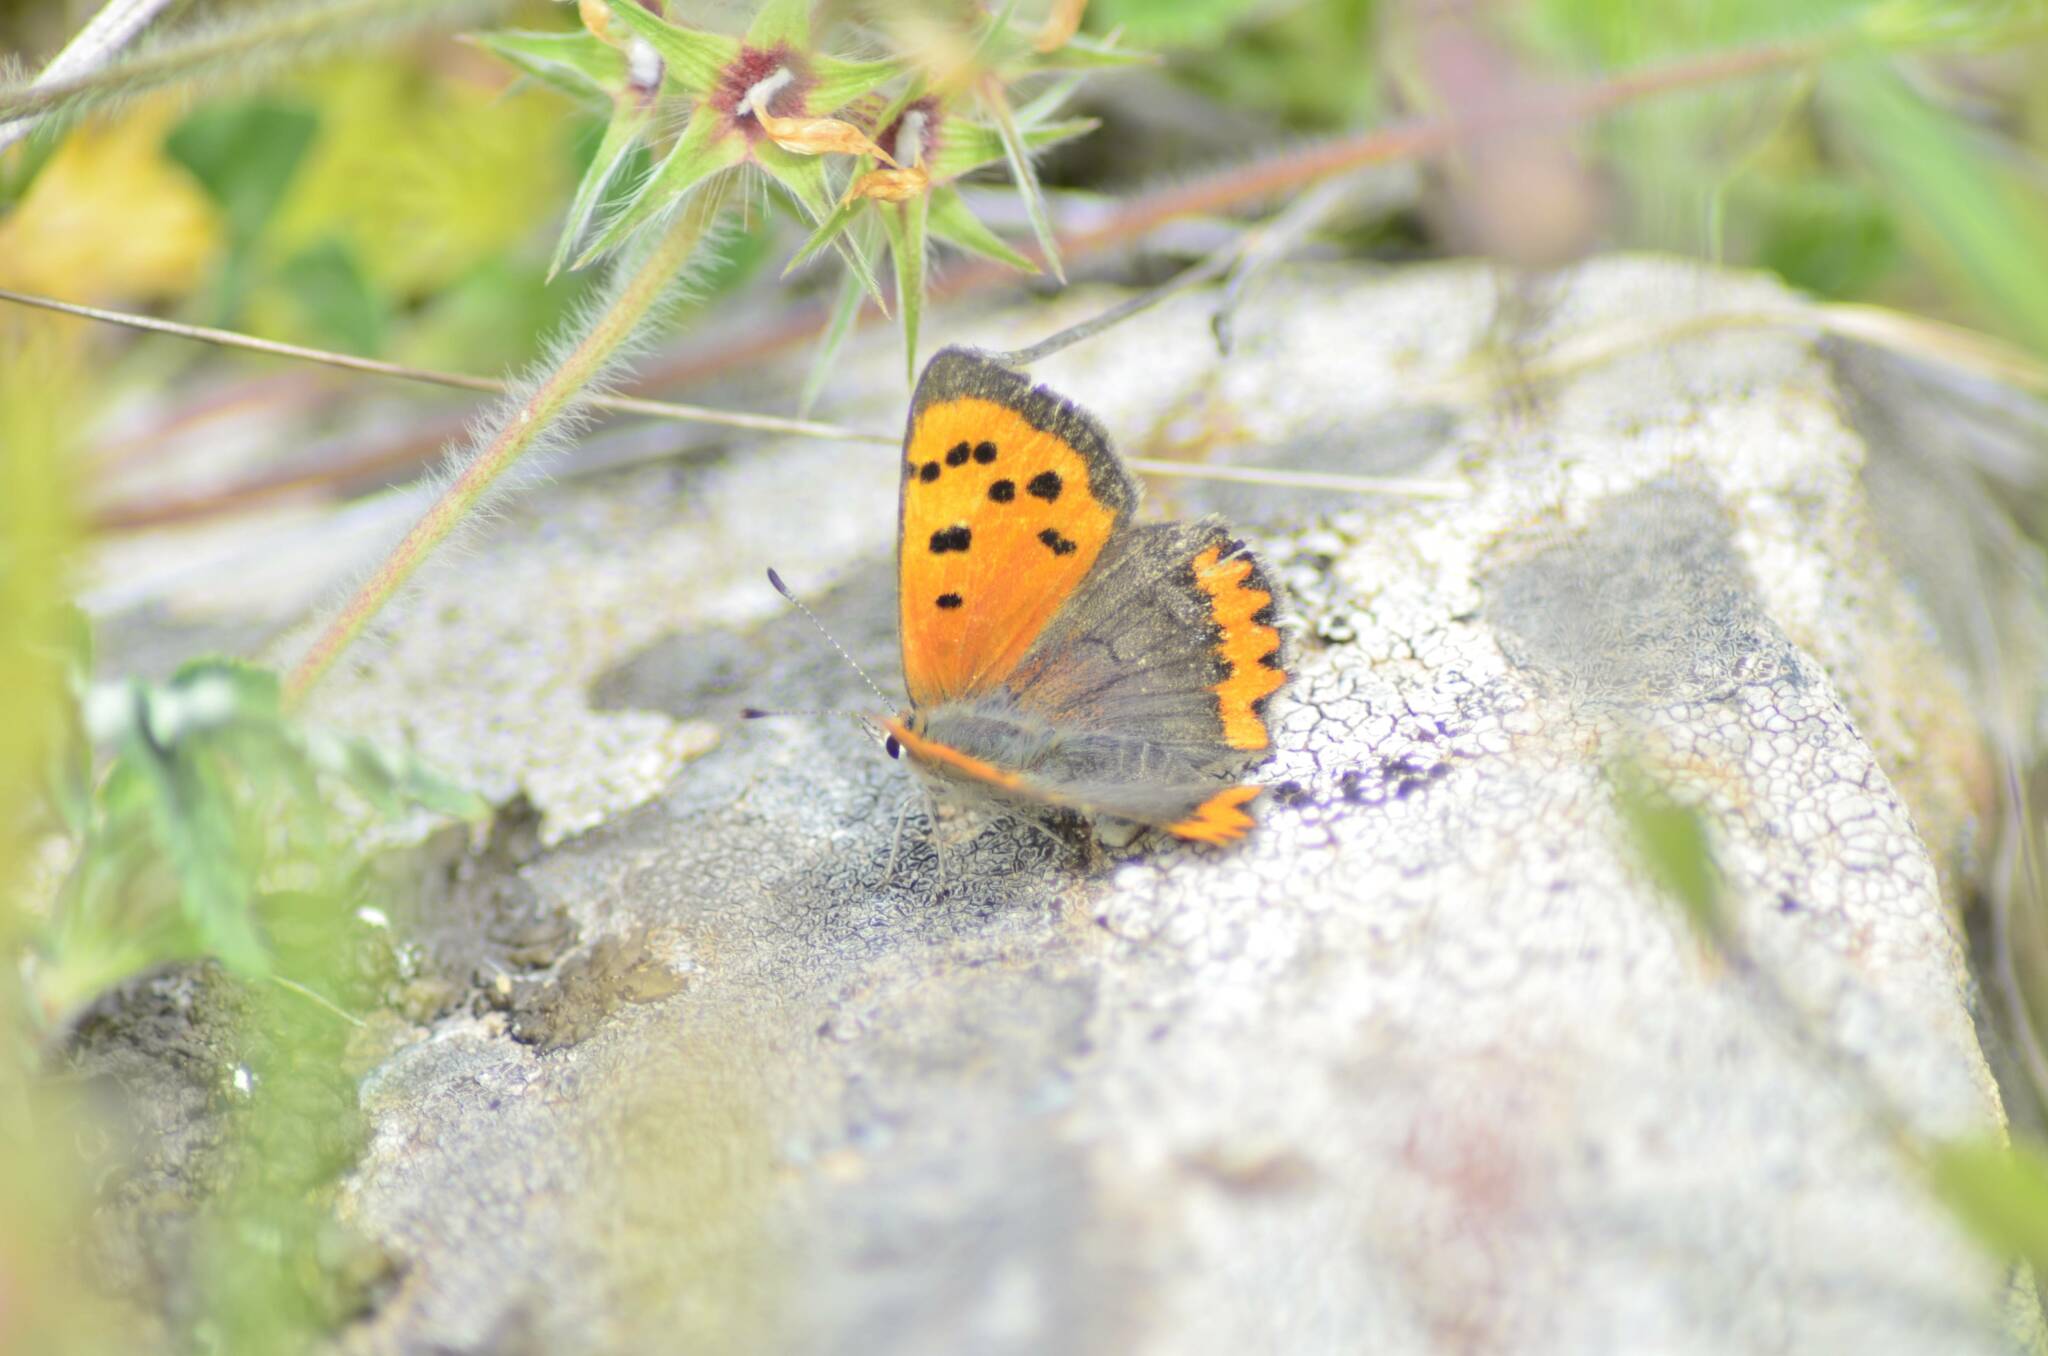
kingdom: Animalia
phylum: Arthropoda
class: Insecta
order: Lepidoptera
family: Lycaenidae
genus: Lycaena
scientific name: Lycaena phlaeas
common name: Small copper
